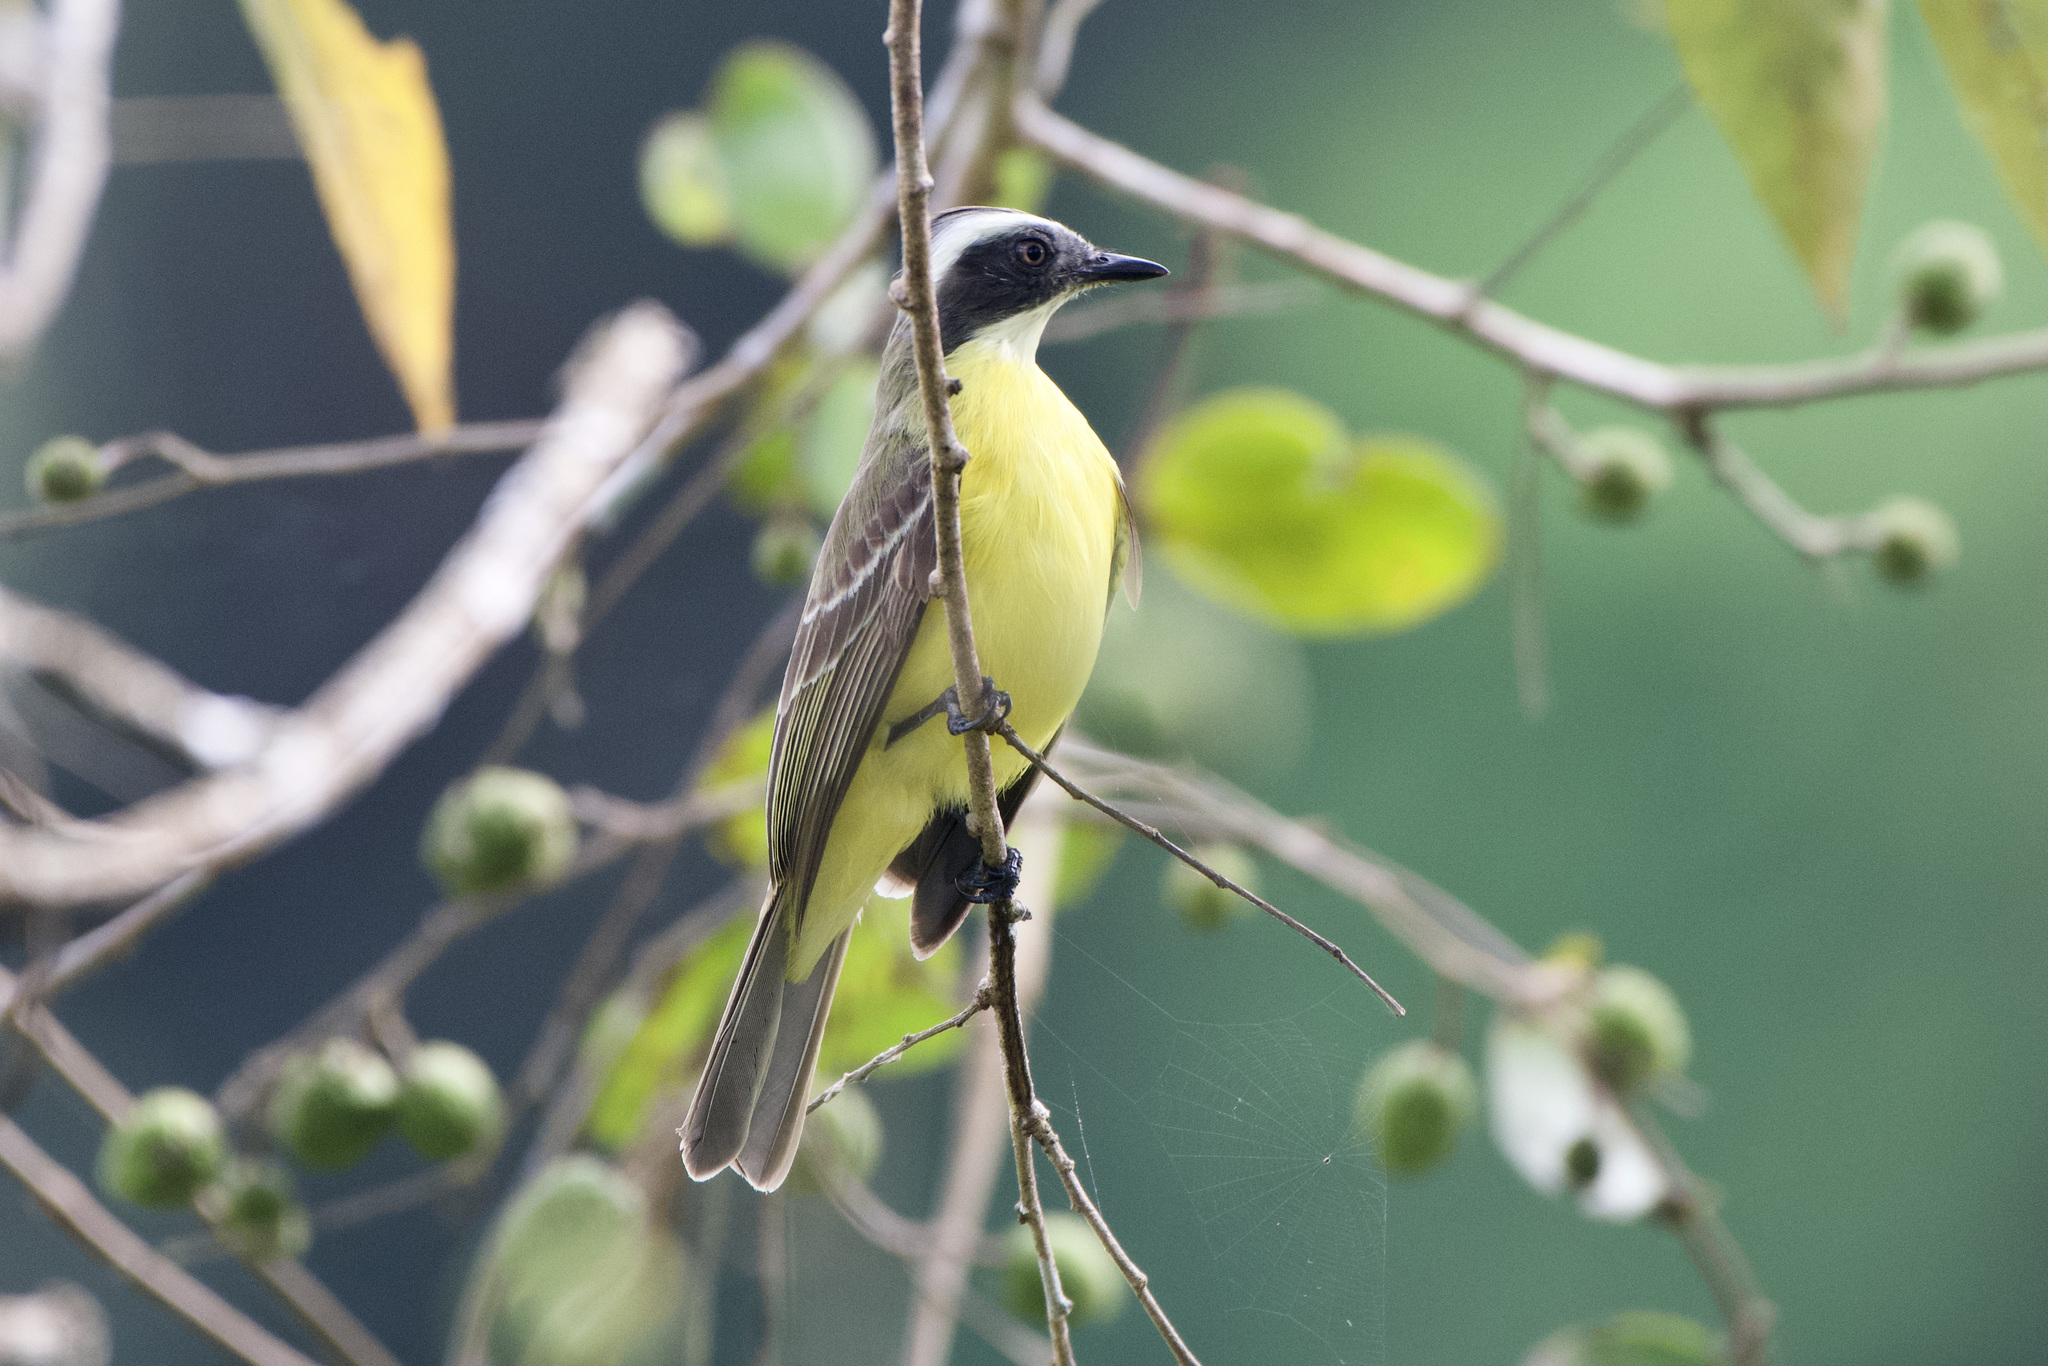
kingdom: Animalia
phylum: Chordata
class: Aves
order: Passeriformes
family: Tyrannidae
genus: Myiozetetes
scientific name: Myiozetetes similis
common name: Social flycatcher
